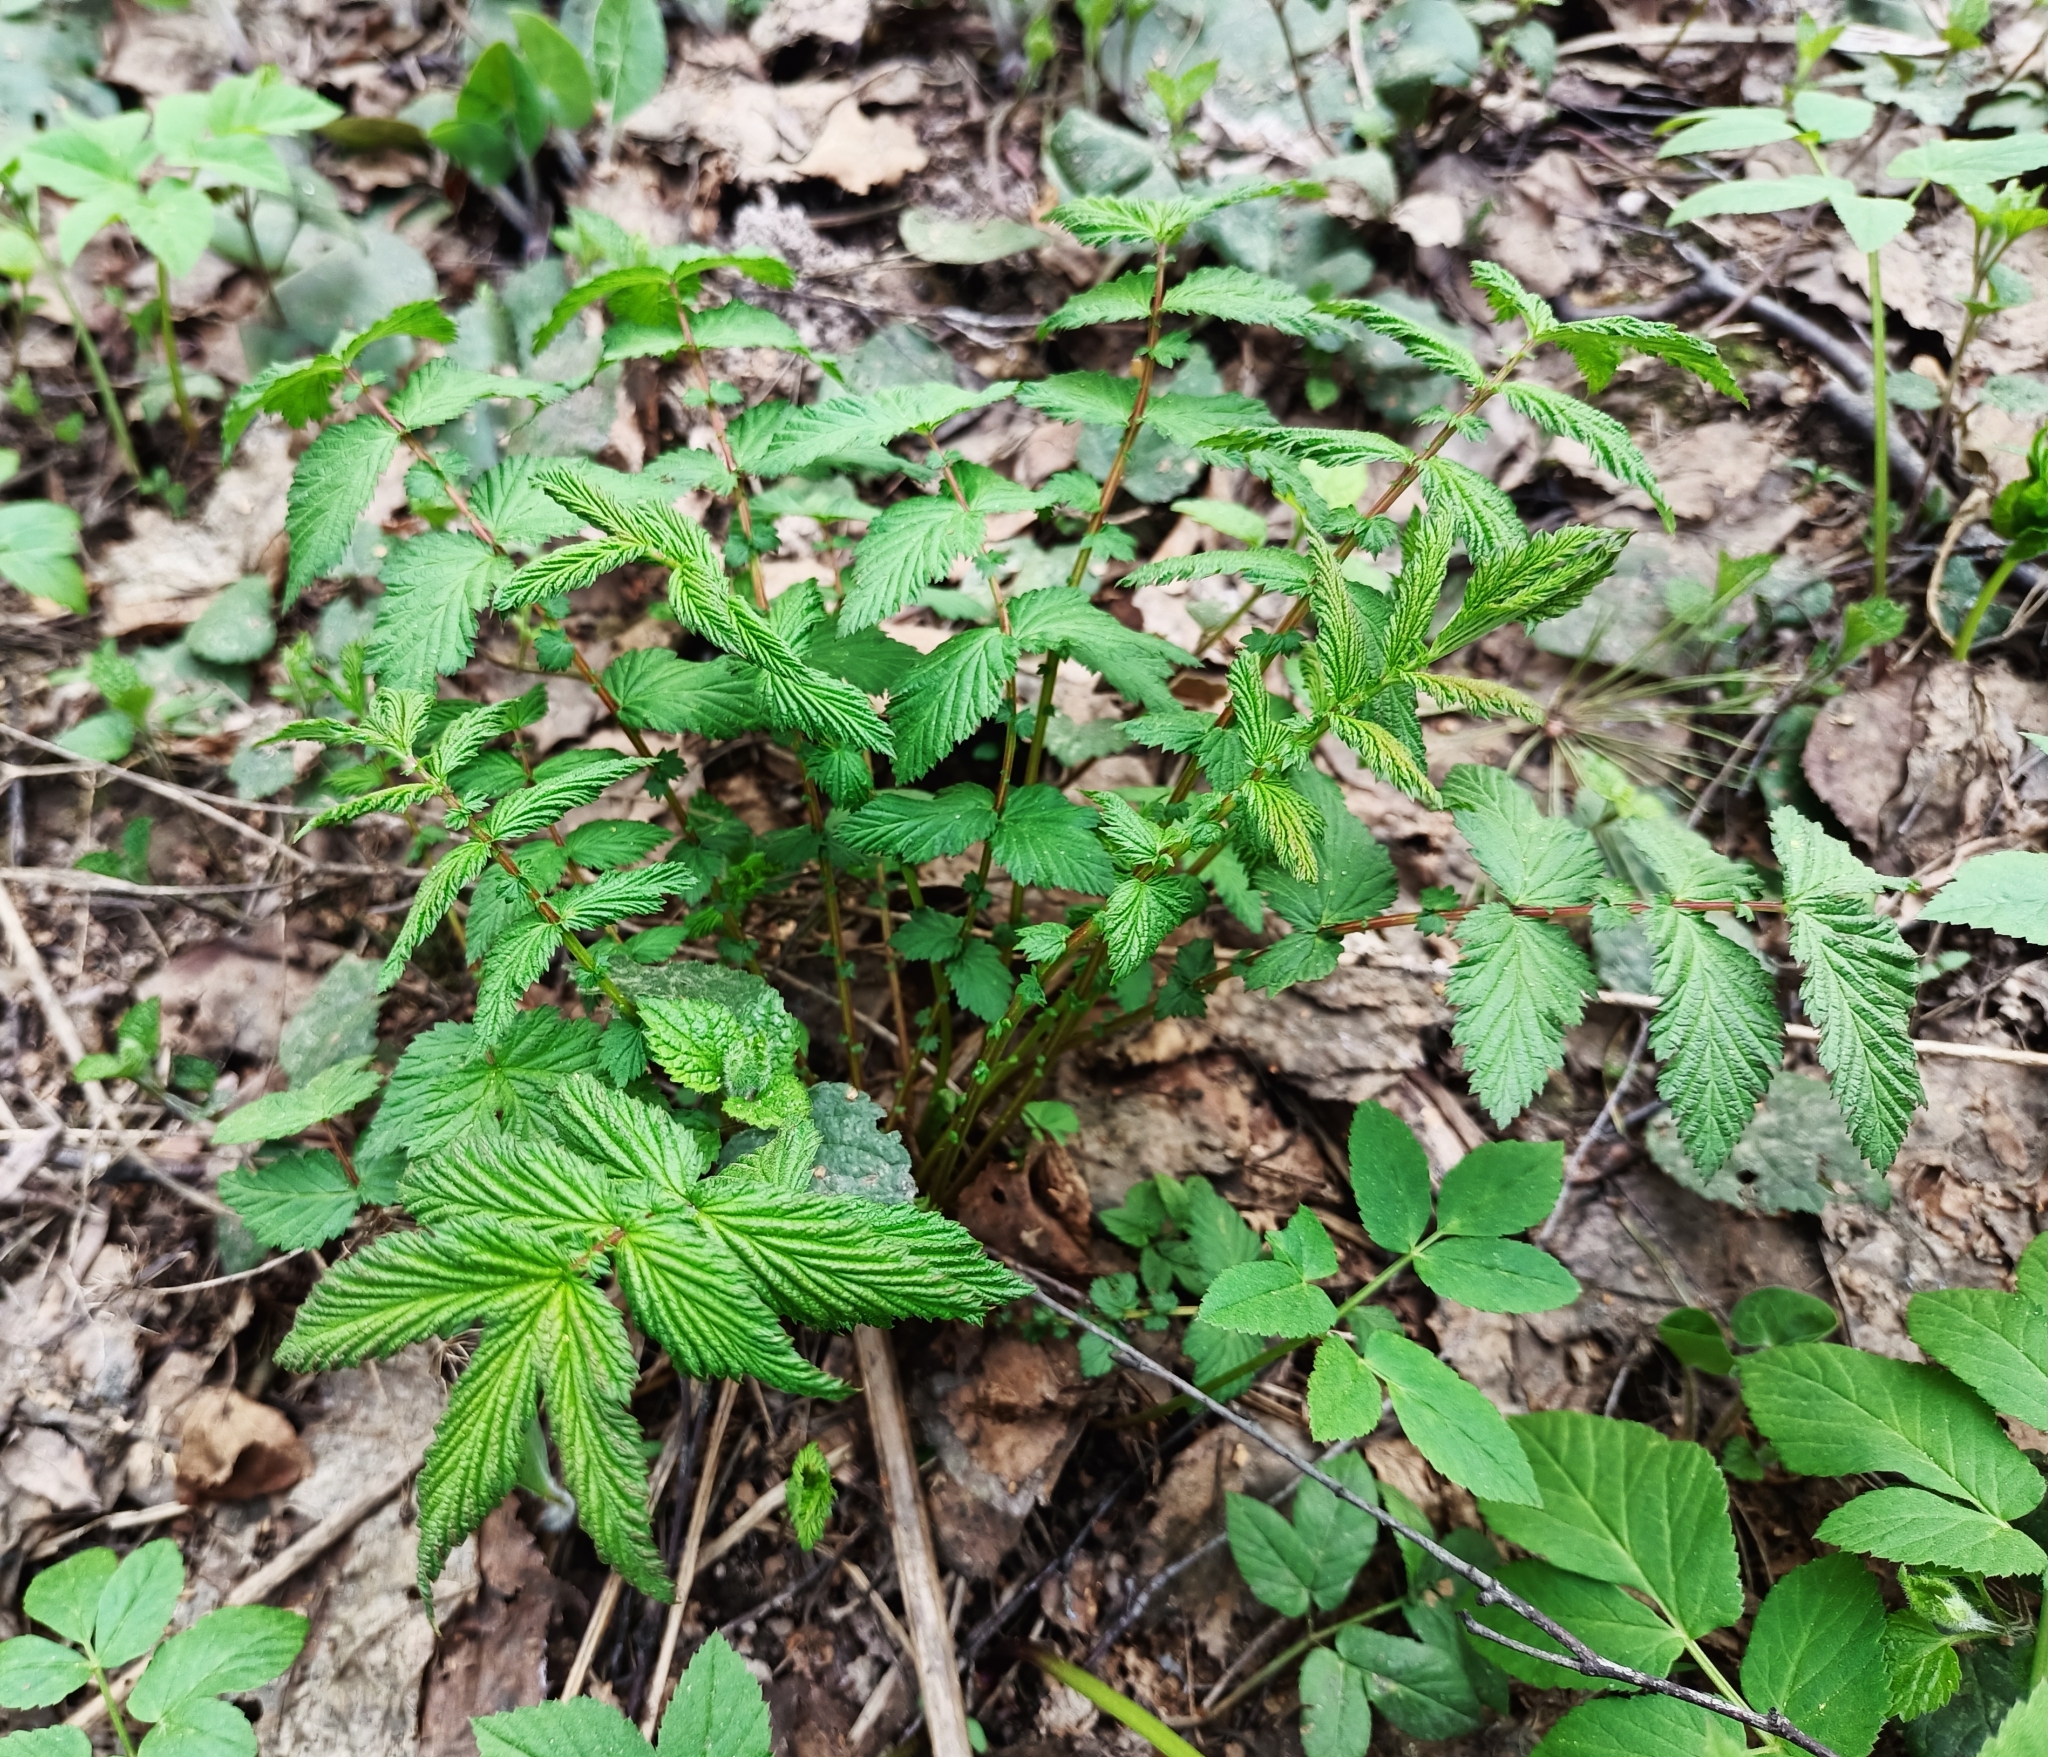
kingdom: Plantae
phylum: Tracheophyta
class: Magnoliopsida
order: Rosales
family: Rosaceae
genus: Filipendula
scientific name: Filipendula ulmaria
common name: Meadowsweet
